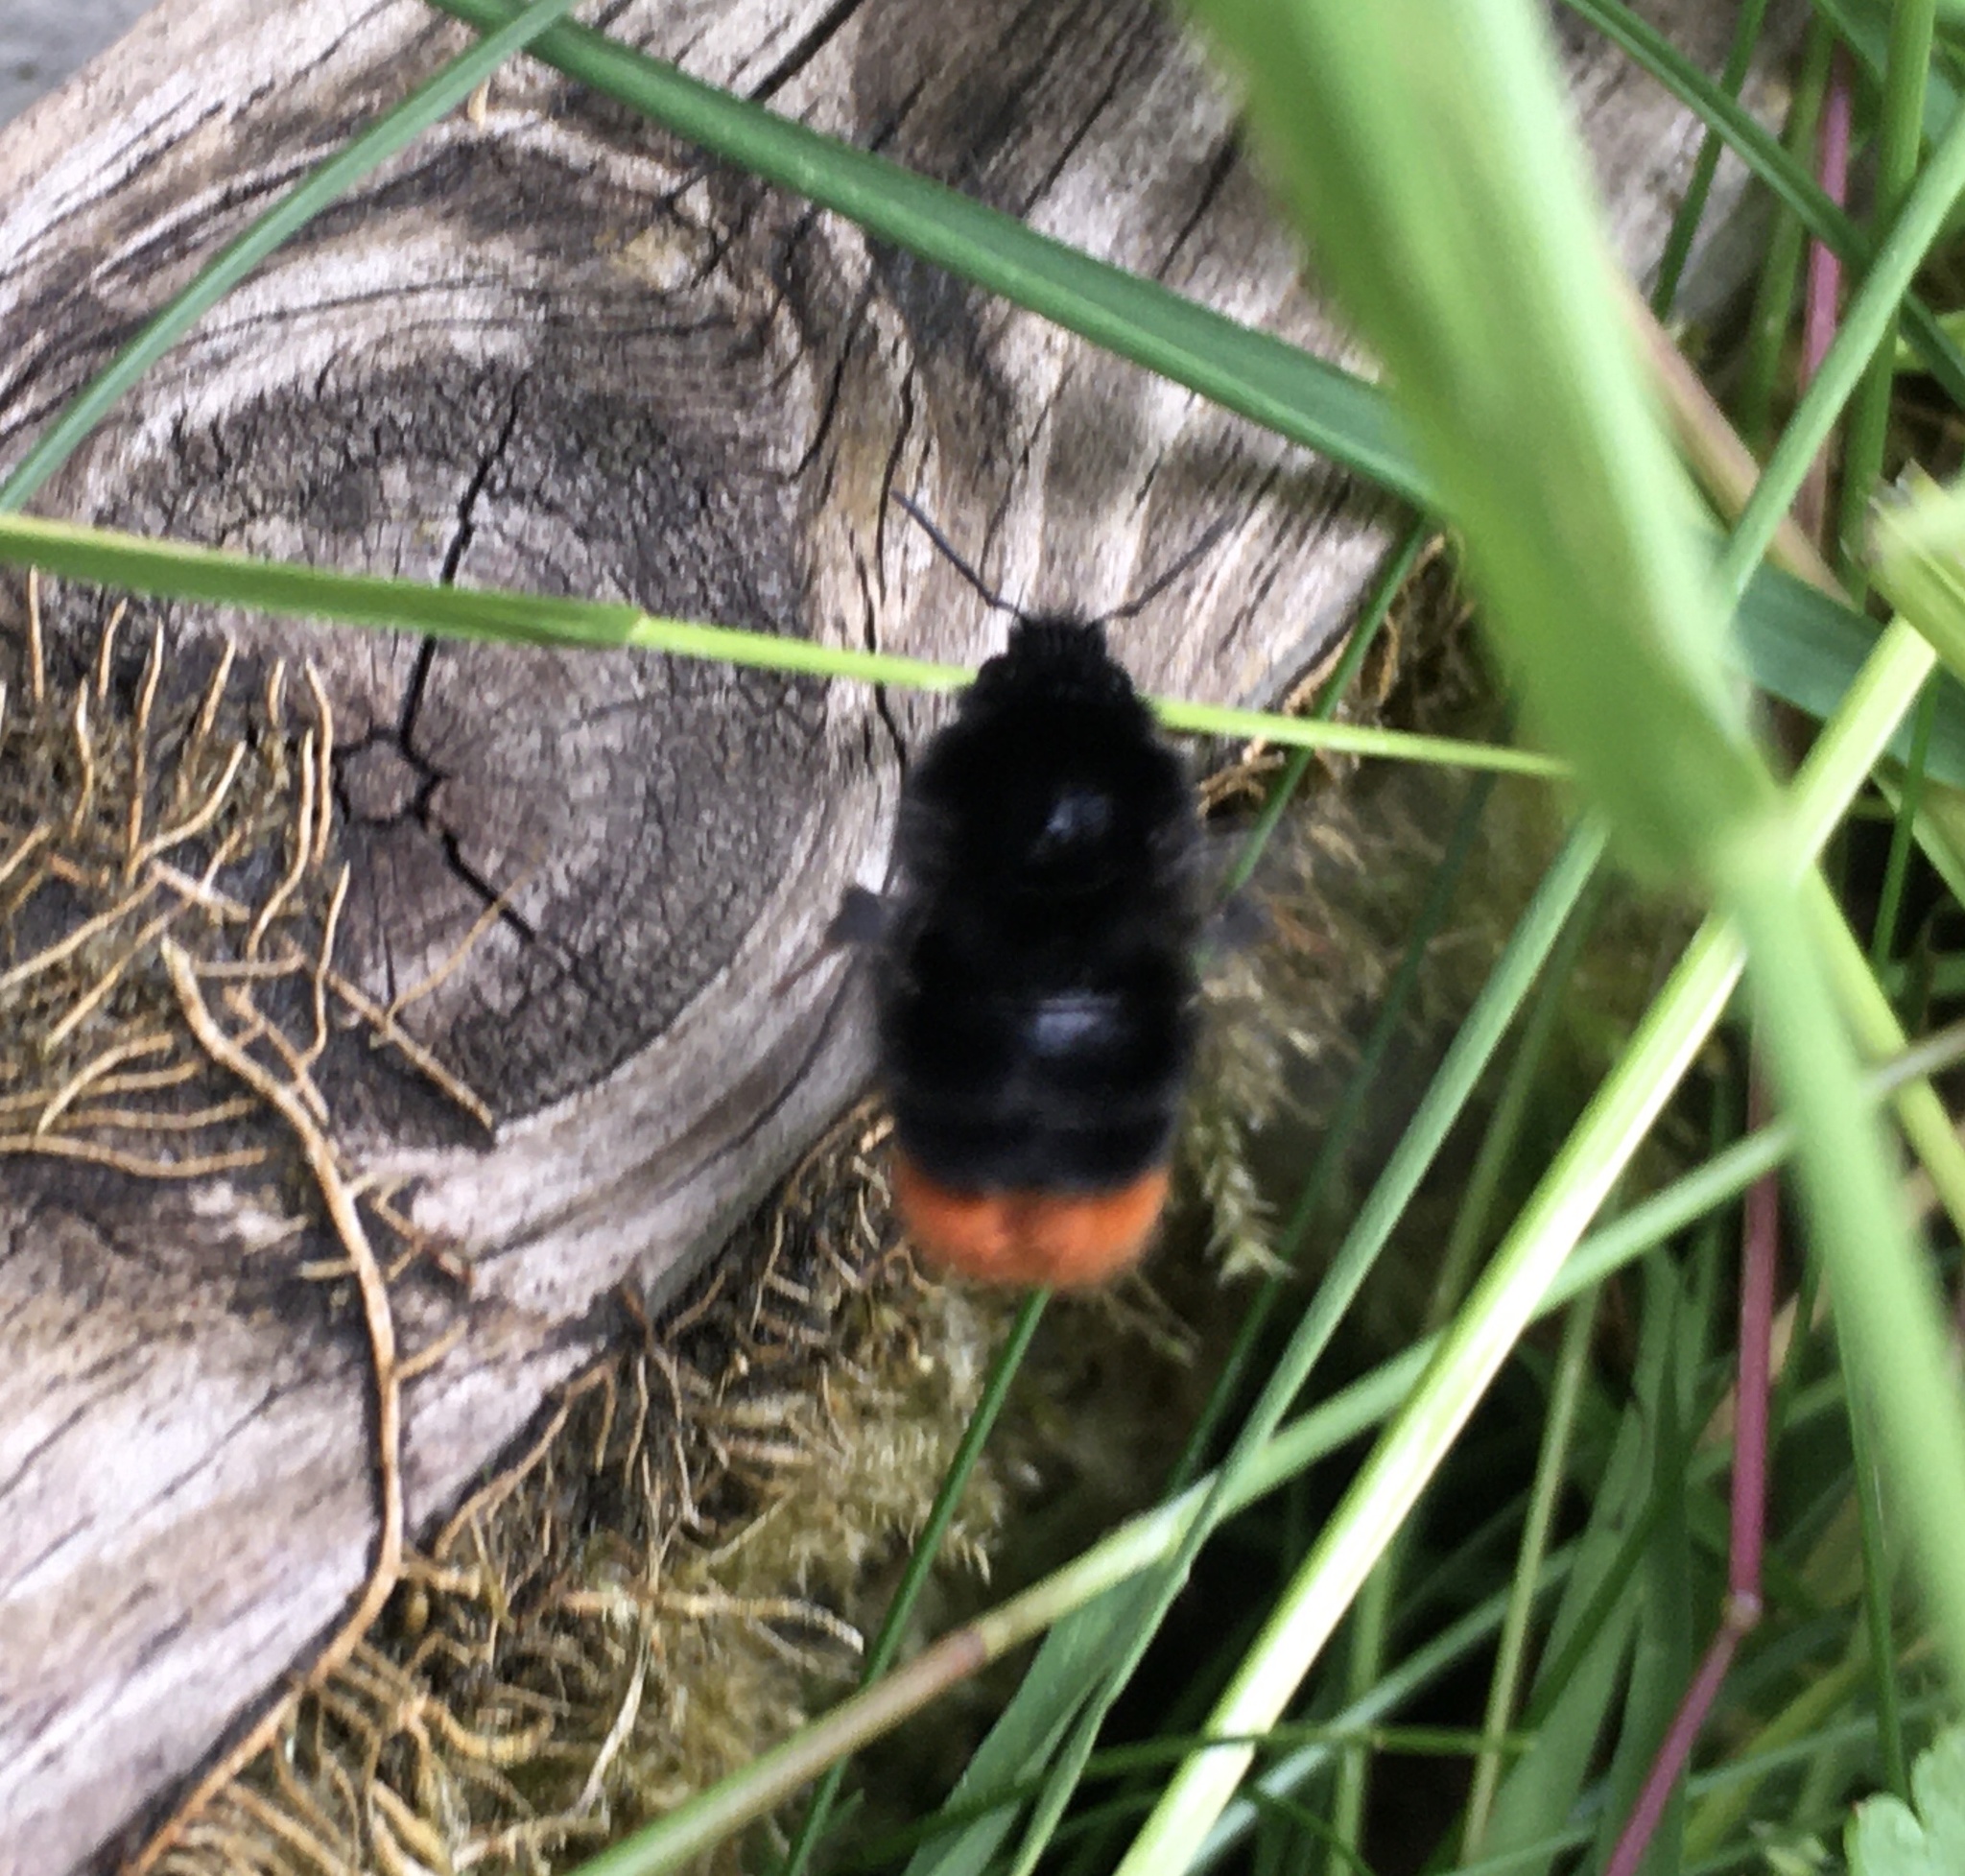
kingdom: Animalia
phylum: Arthropoda
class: Insecta
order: Hymenoptera
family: Apidae
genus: Bombus
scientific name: Bombus lapidarius
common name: Large red-tailed humble-bee
